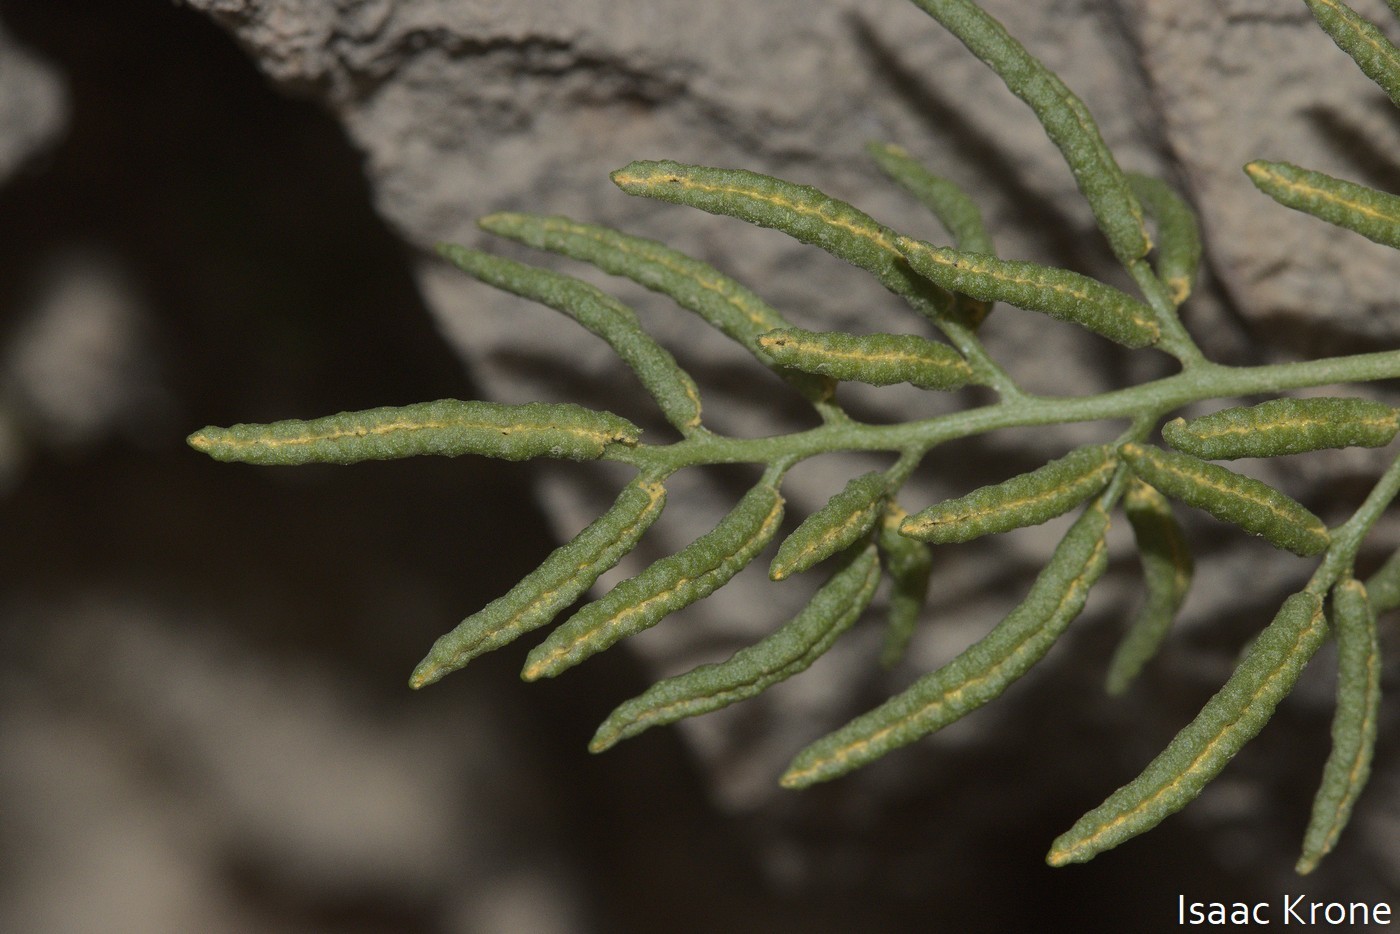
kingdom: Plantae
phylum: Tracheophyta
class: Polypodiopsida
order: Polypodiales
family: Pteridaceae
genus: Cryptogramma
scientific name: Cryptogramma acrostichoides
